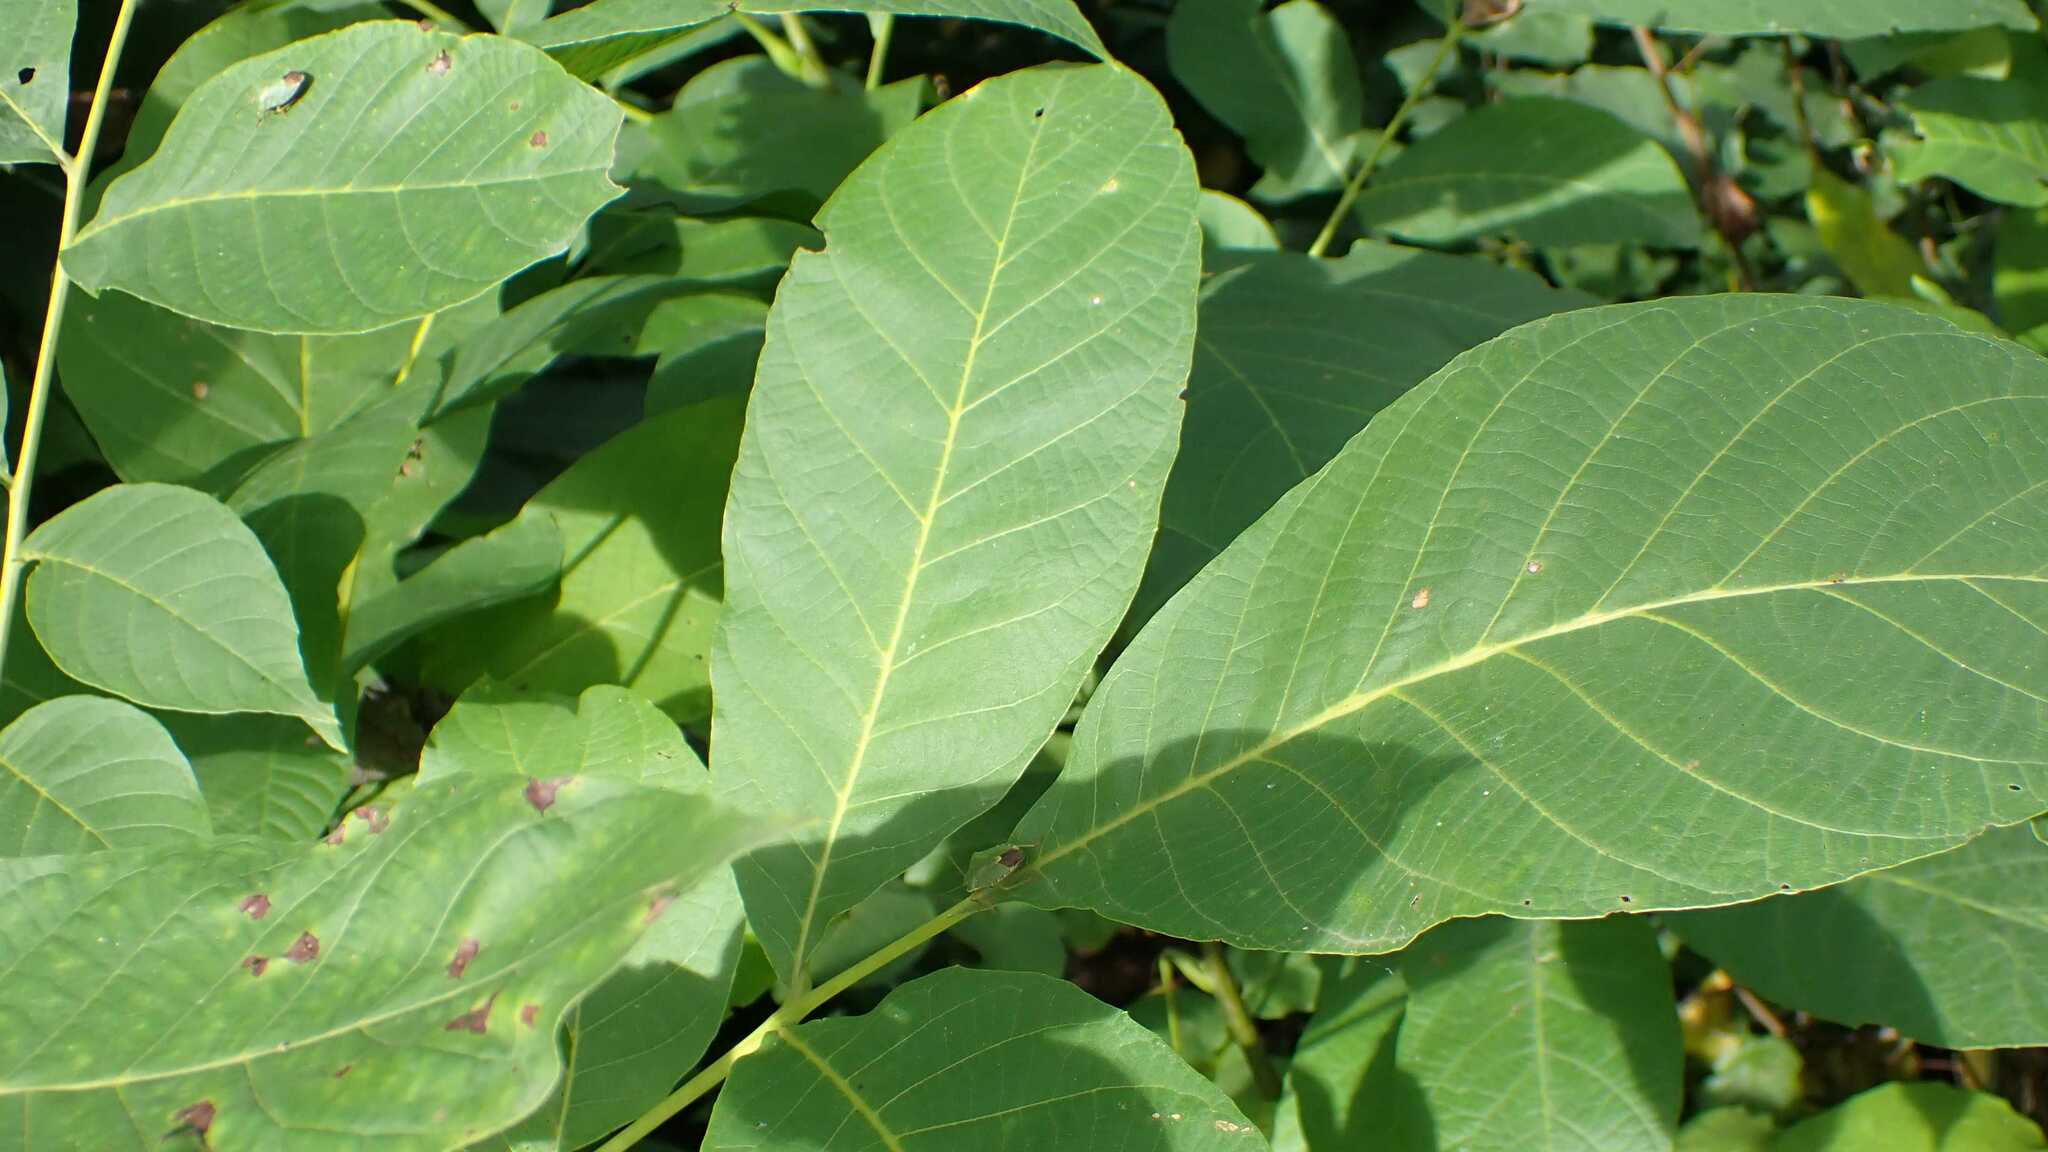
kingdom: Animalia
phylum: Arthropoda
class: Insecta
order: Hemiptera
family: Pentatomidae
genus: Palomena
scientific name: Palomena prasina
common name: Green shieldbug
